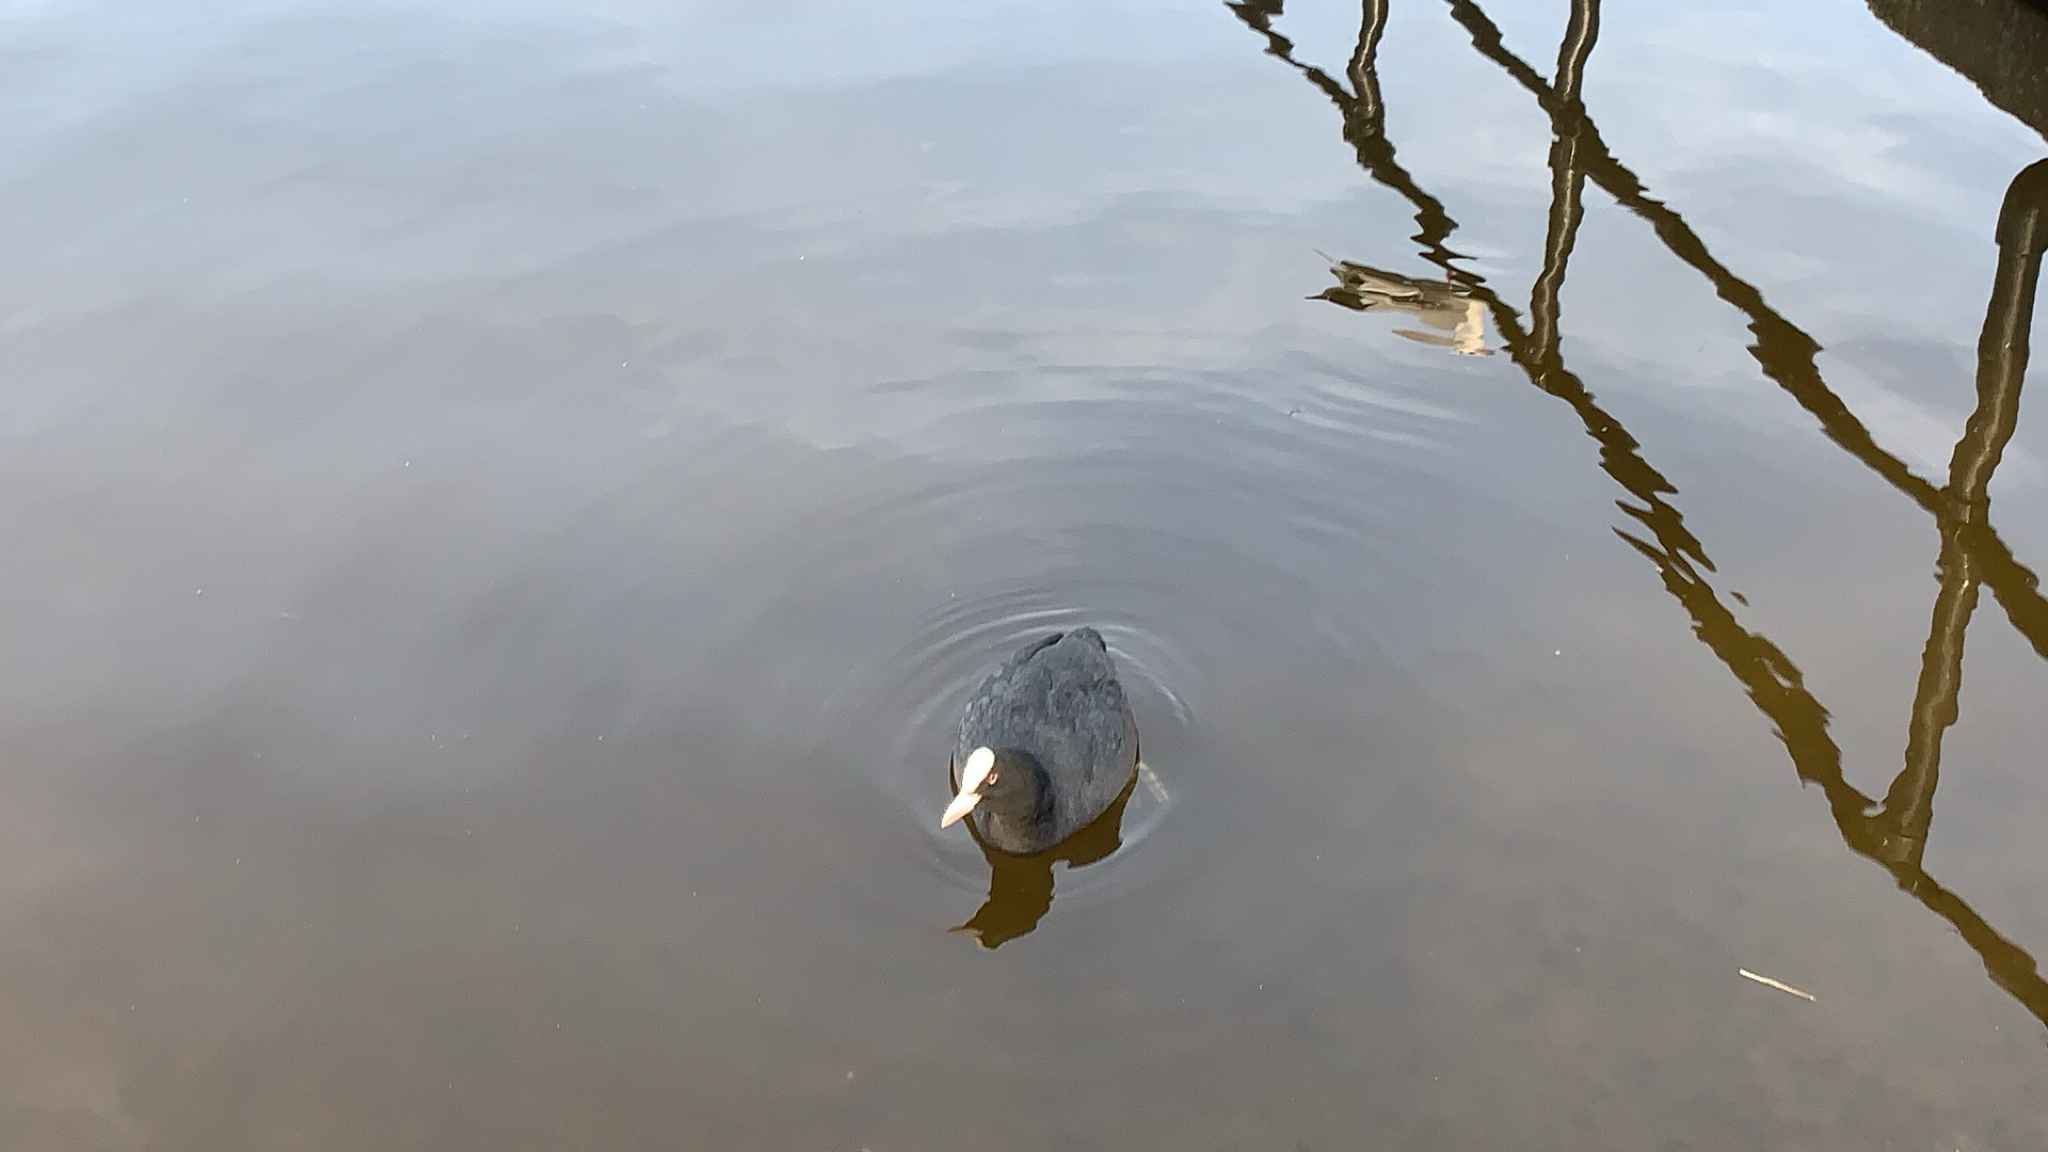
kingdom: Animalia
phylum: Chordata
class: Aves
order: Gruiformes
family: Rallidae
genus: Fulica
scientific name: Fulica atra
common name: Eurasian coot
